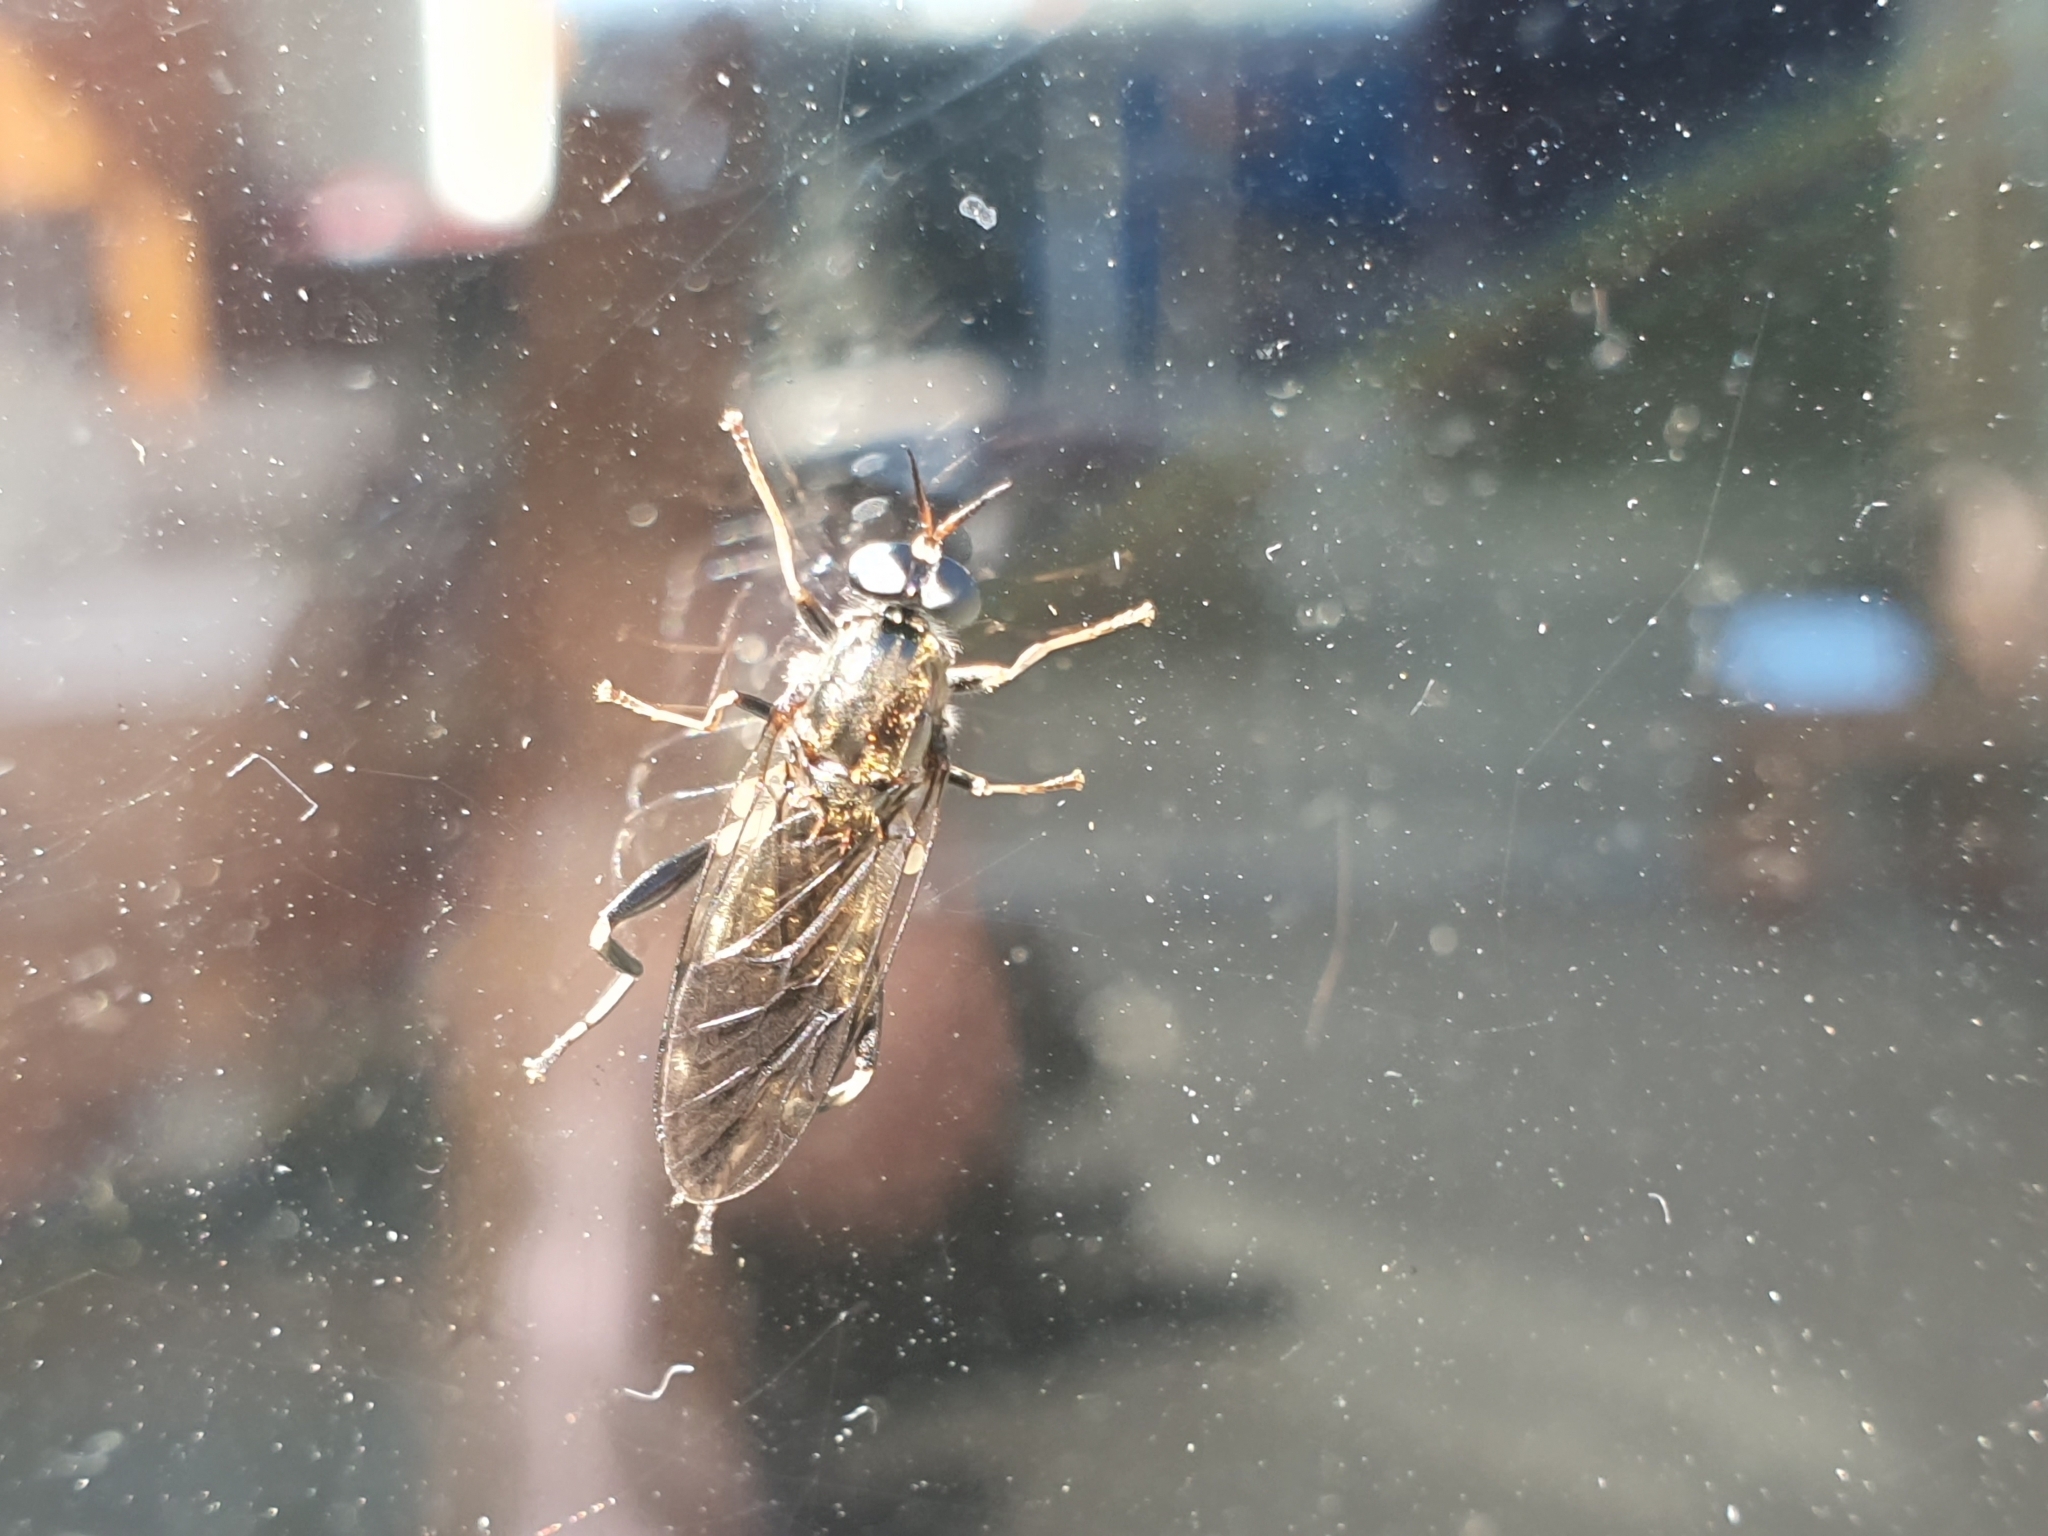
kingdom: Animalia
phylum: Arthropoda
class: Insecta
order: Diptera
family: Stratiomyidae
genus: Exaireta
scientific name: Exaireta spinigera
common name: Blue soldier fly
